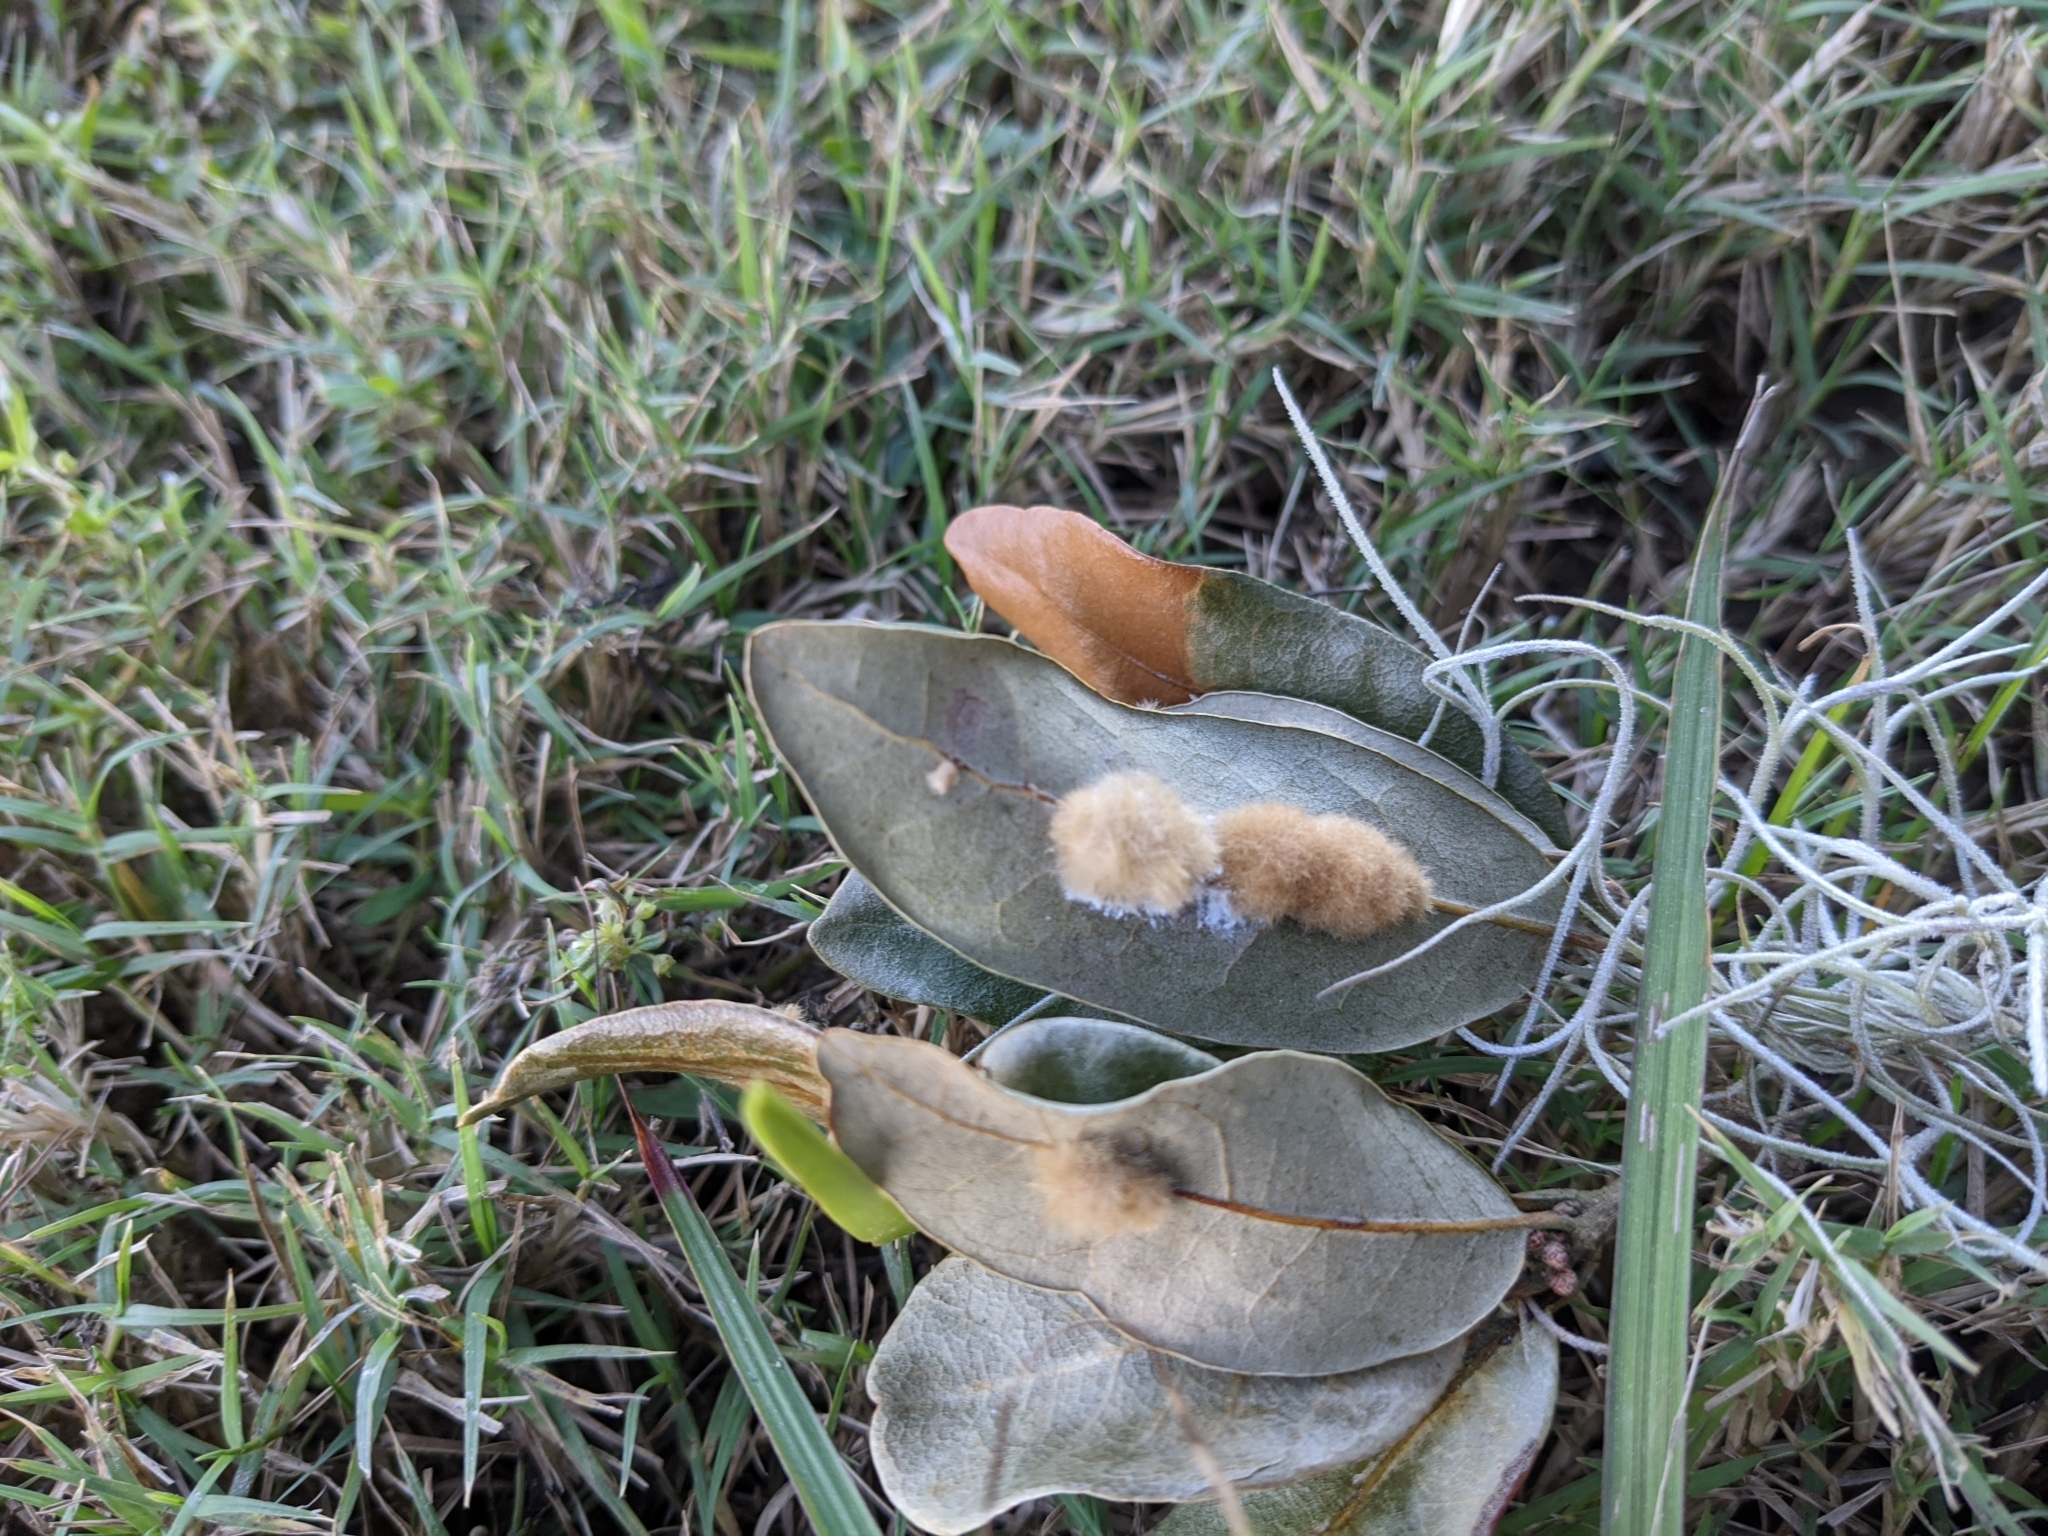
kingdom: Animalia
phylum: Arthropoda
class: Insecta
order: Hymenoptera
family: Cynipidae
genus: Andricus
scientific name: Andricus Druon quercuslanigerum
